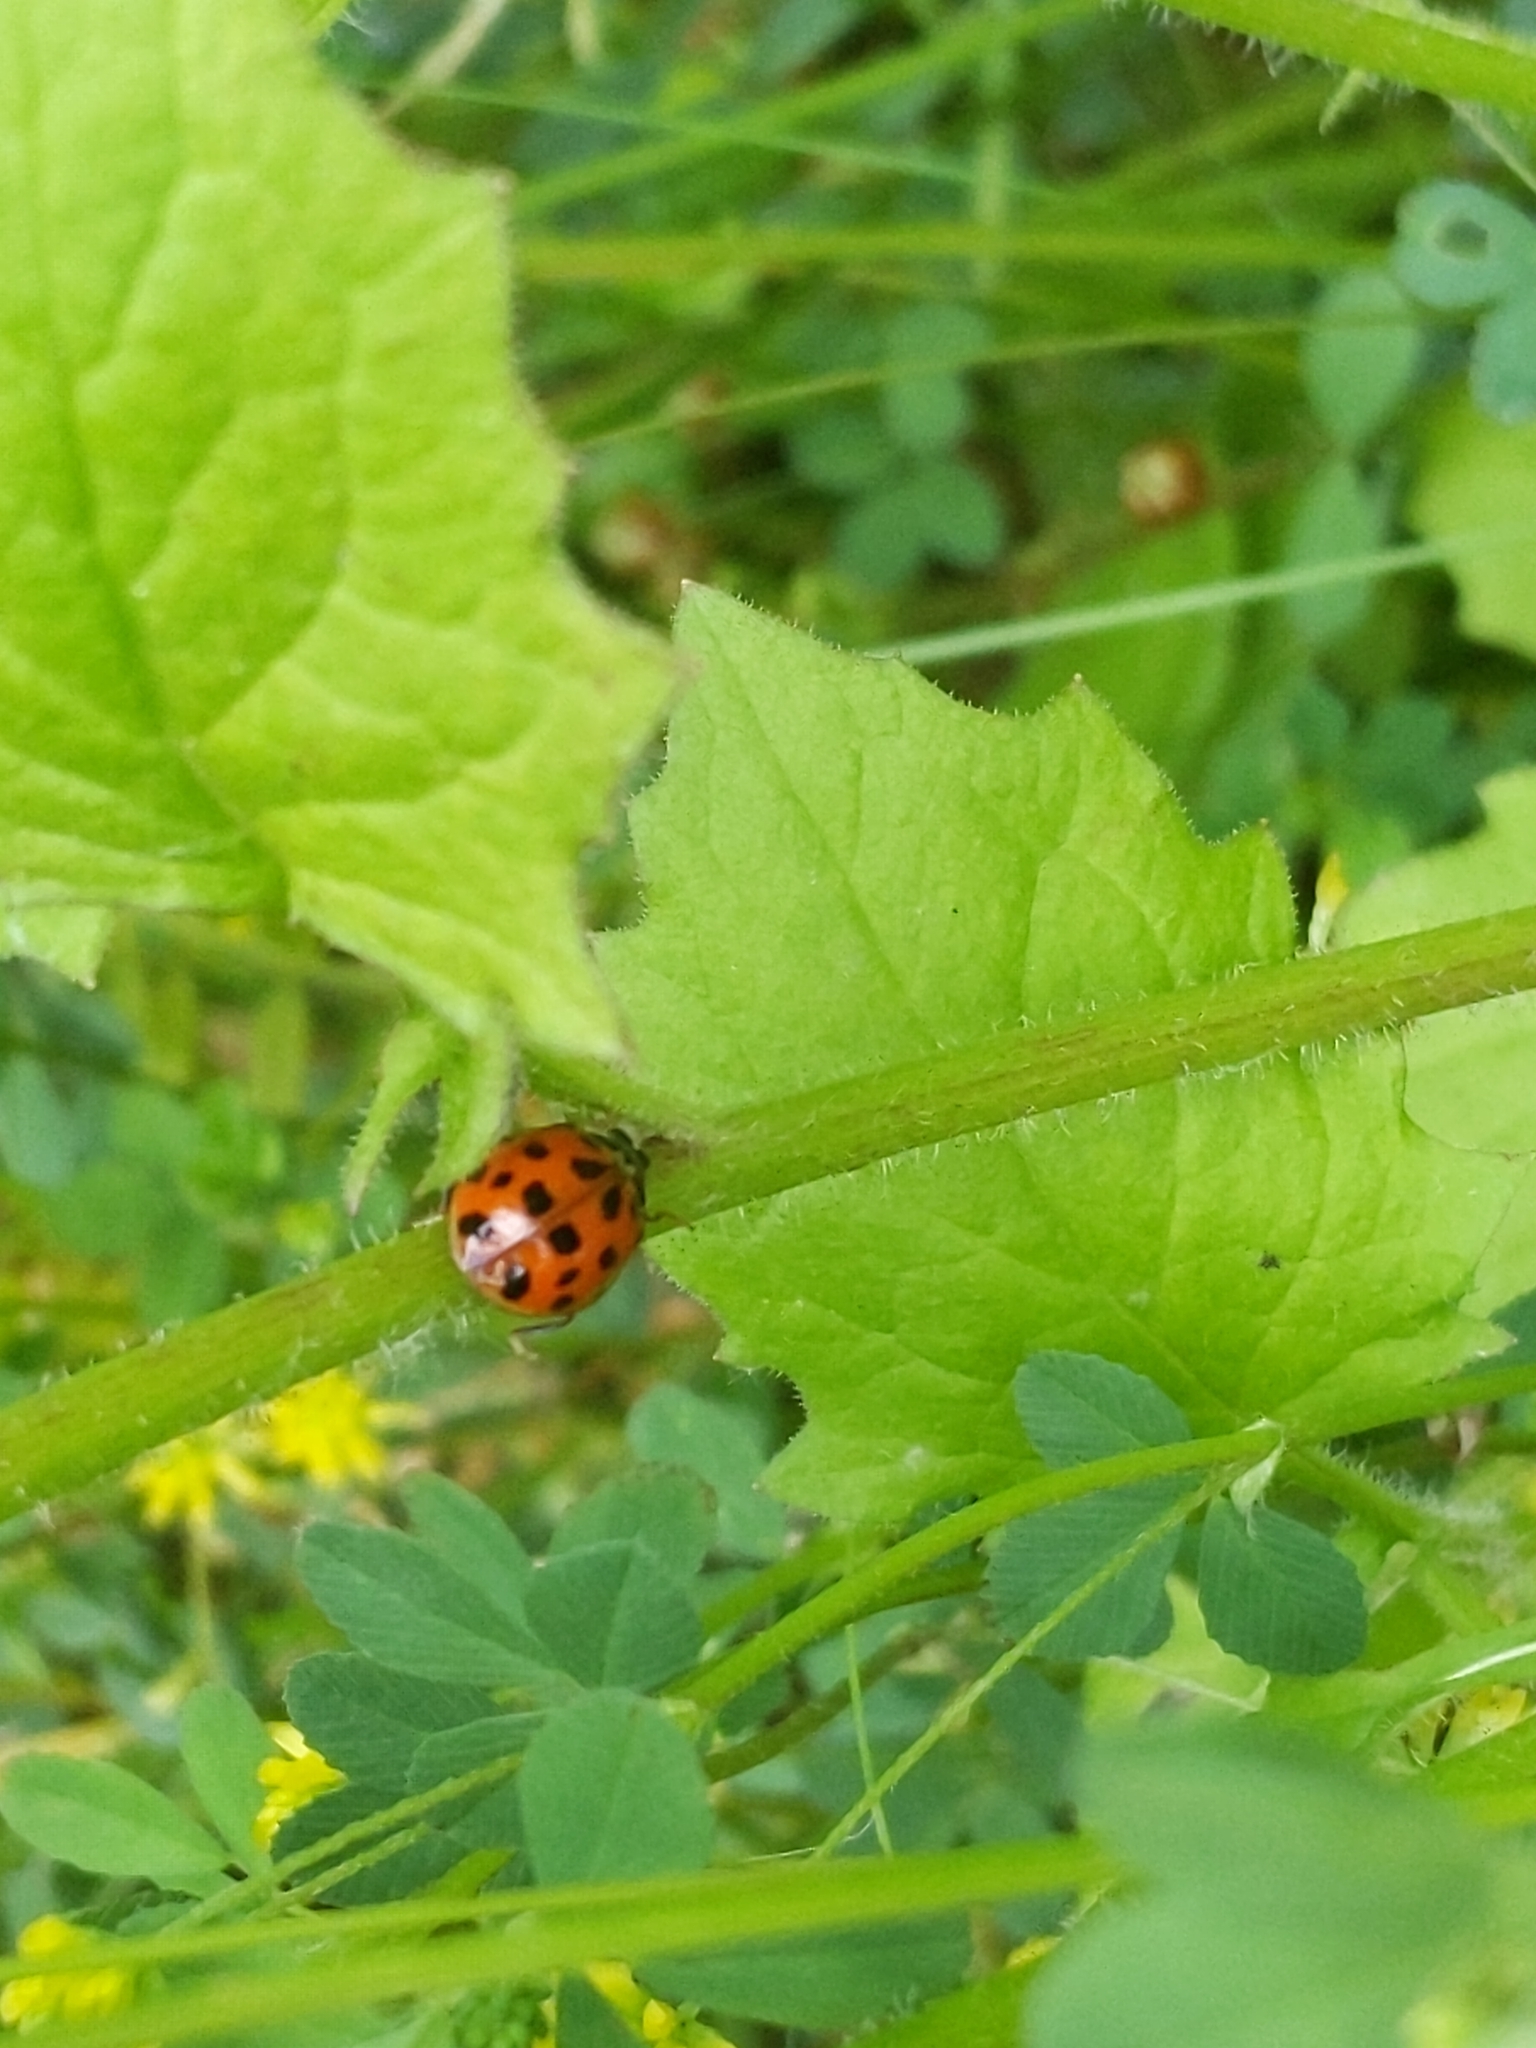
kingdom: Animalia
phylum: Arthropoda
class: Insecta
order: Coleoptera
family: Coccinellidae
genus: Harmonia
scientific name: Harmonia axyridis
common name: Harlequin ladybird
